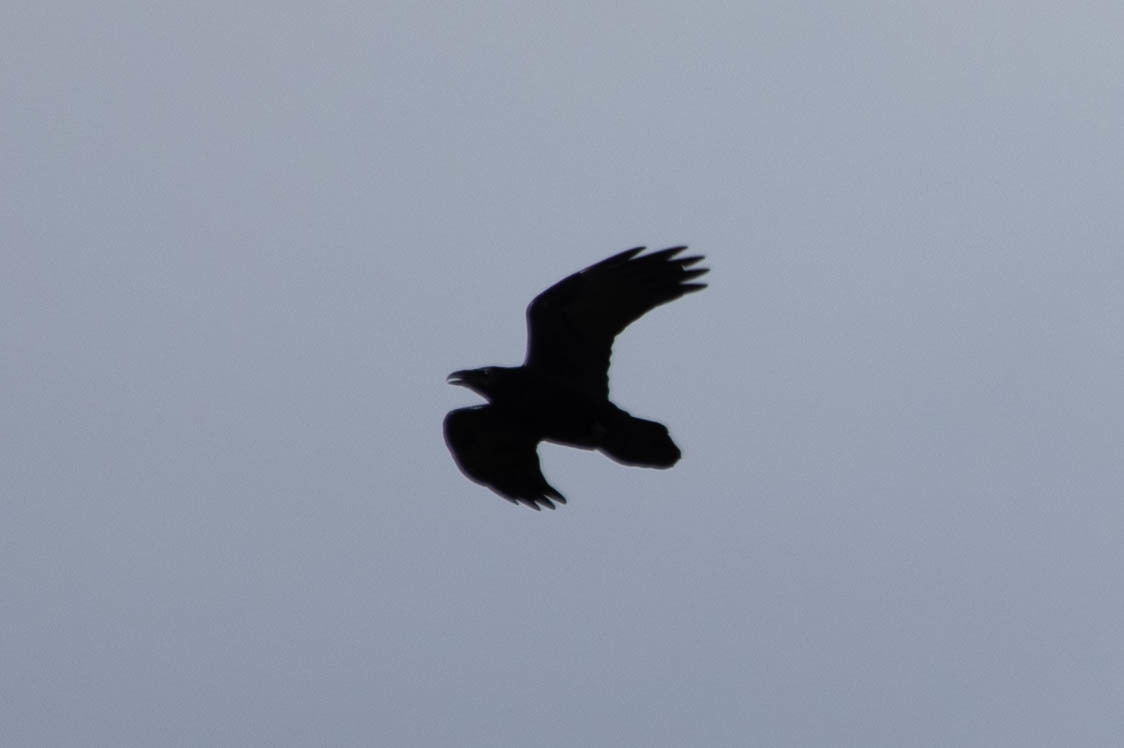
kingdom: Animalia
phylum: Chordata
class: Aves
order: Passeriformes
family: Corvidae
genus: Corvus
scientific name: Corvus corax
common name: Common raven
